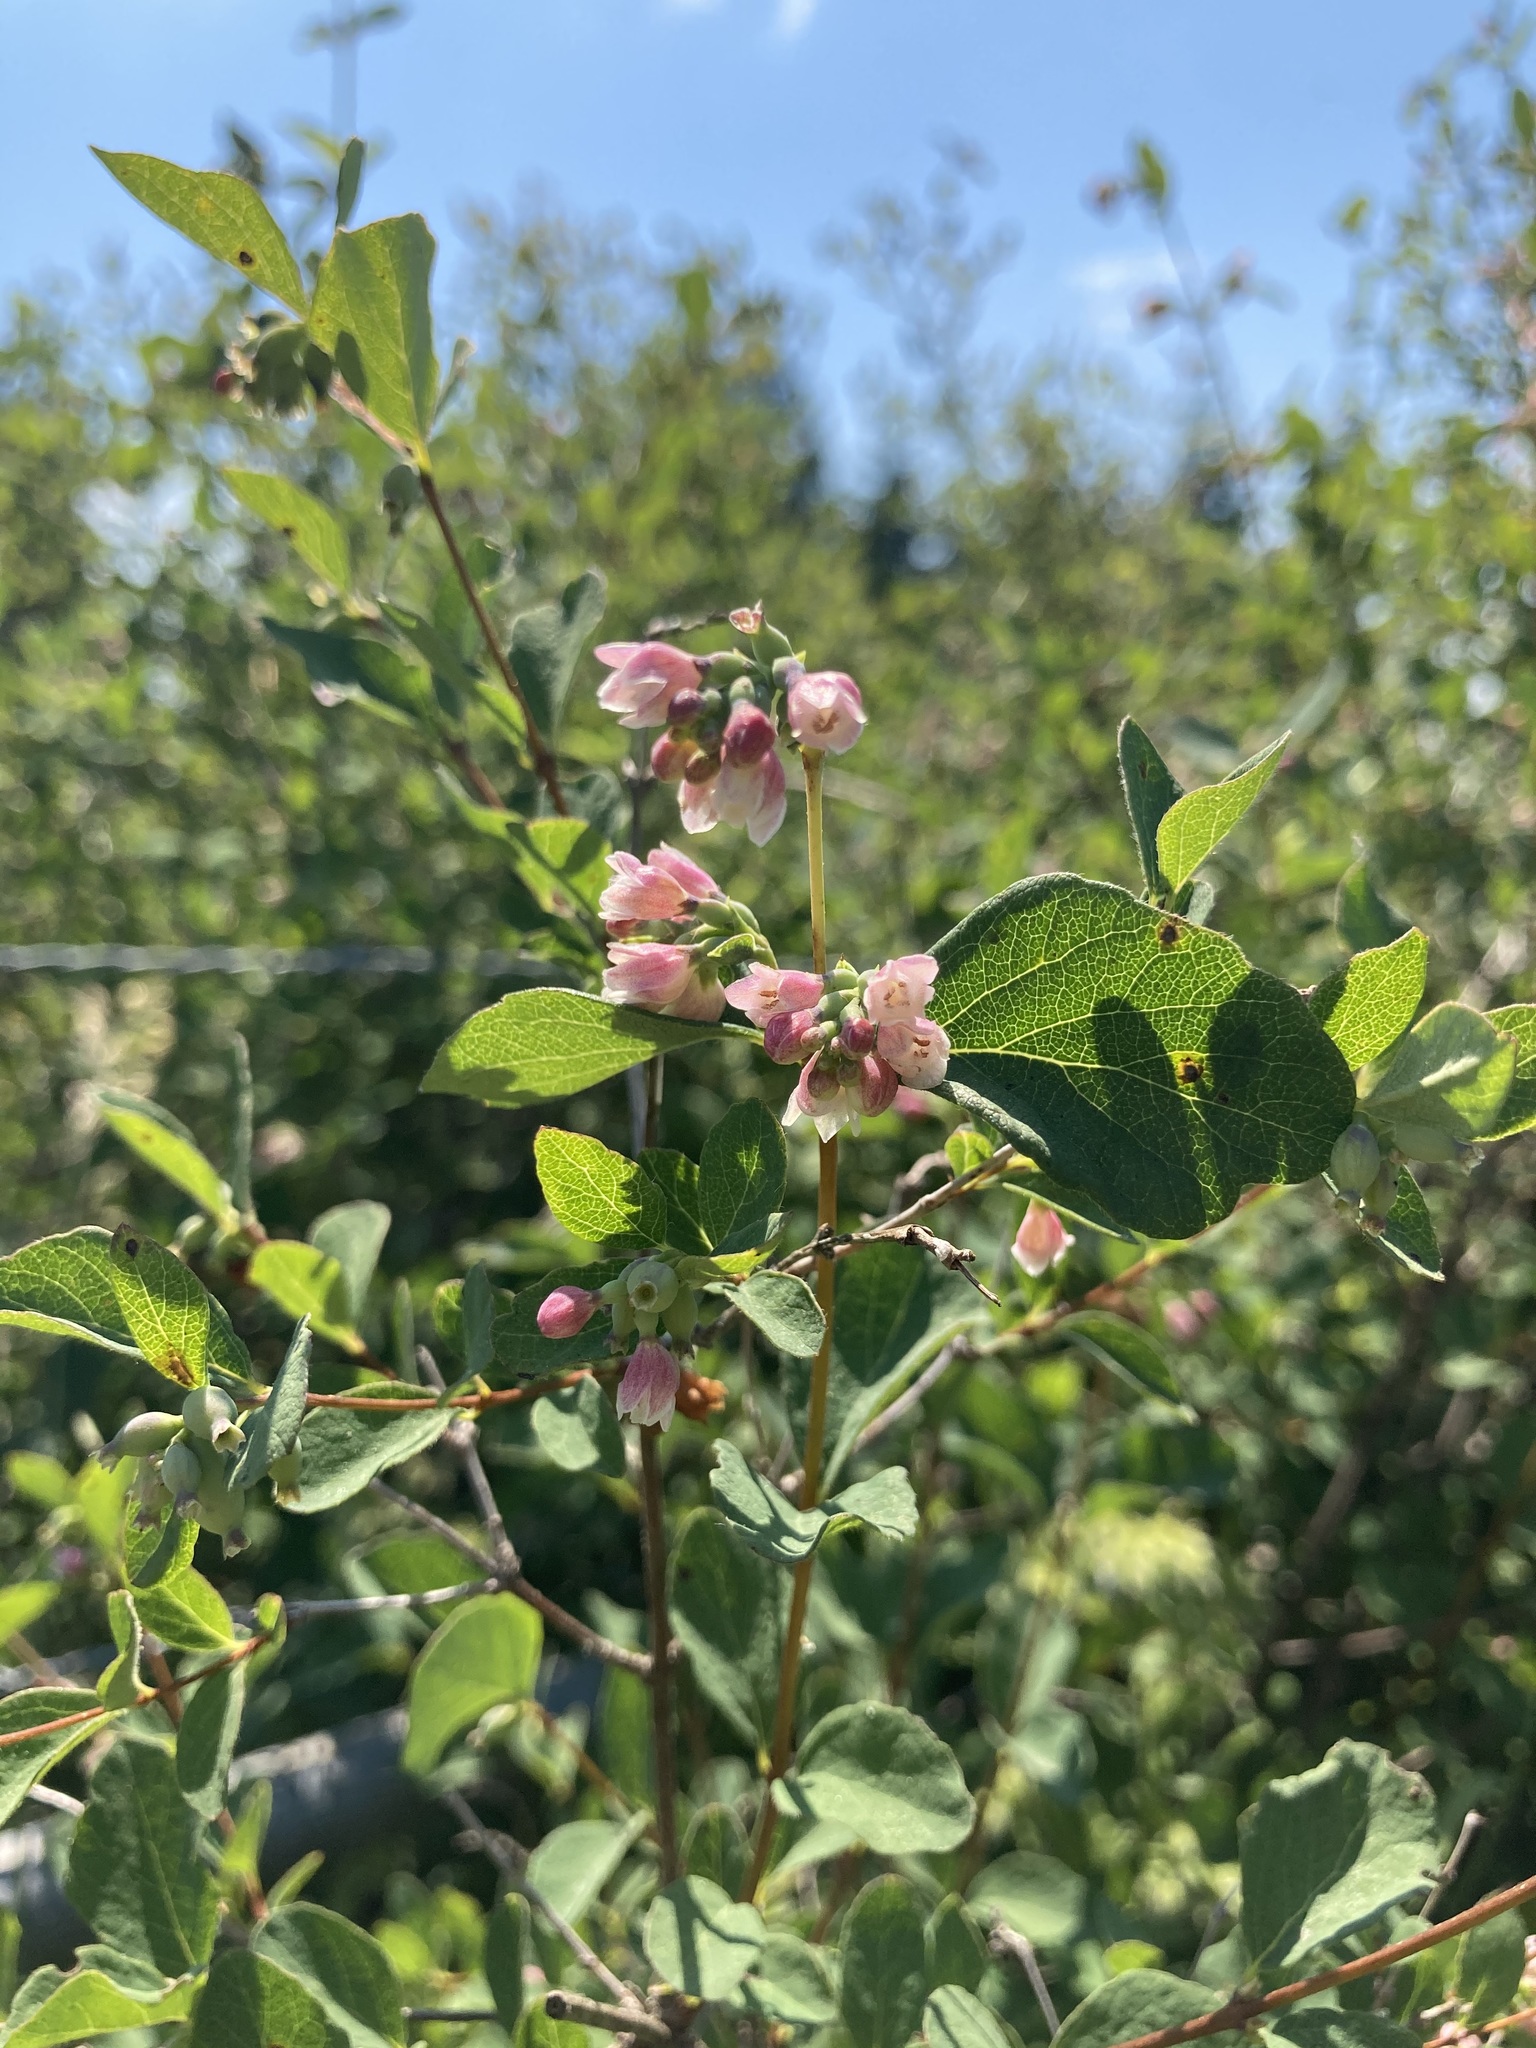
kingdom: Plantae
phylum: Tracheophyta
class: Magnoliopsida
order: Dipsacales
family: Caprifoliaceae
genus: Symphoricarpos
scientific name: Symphoricarpos albus
